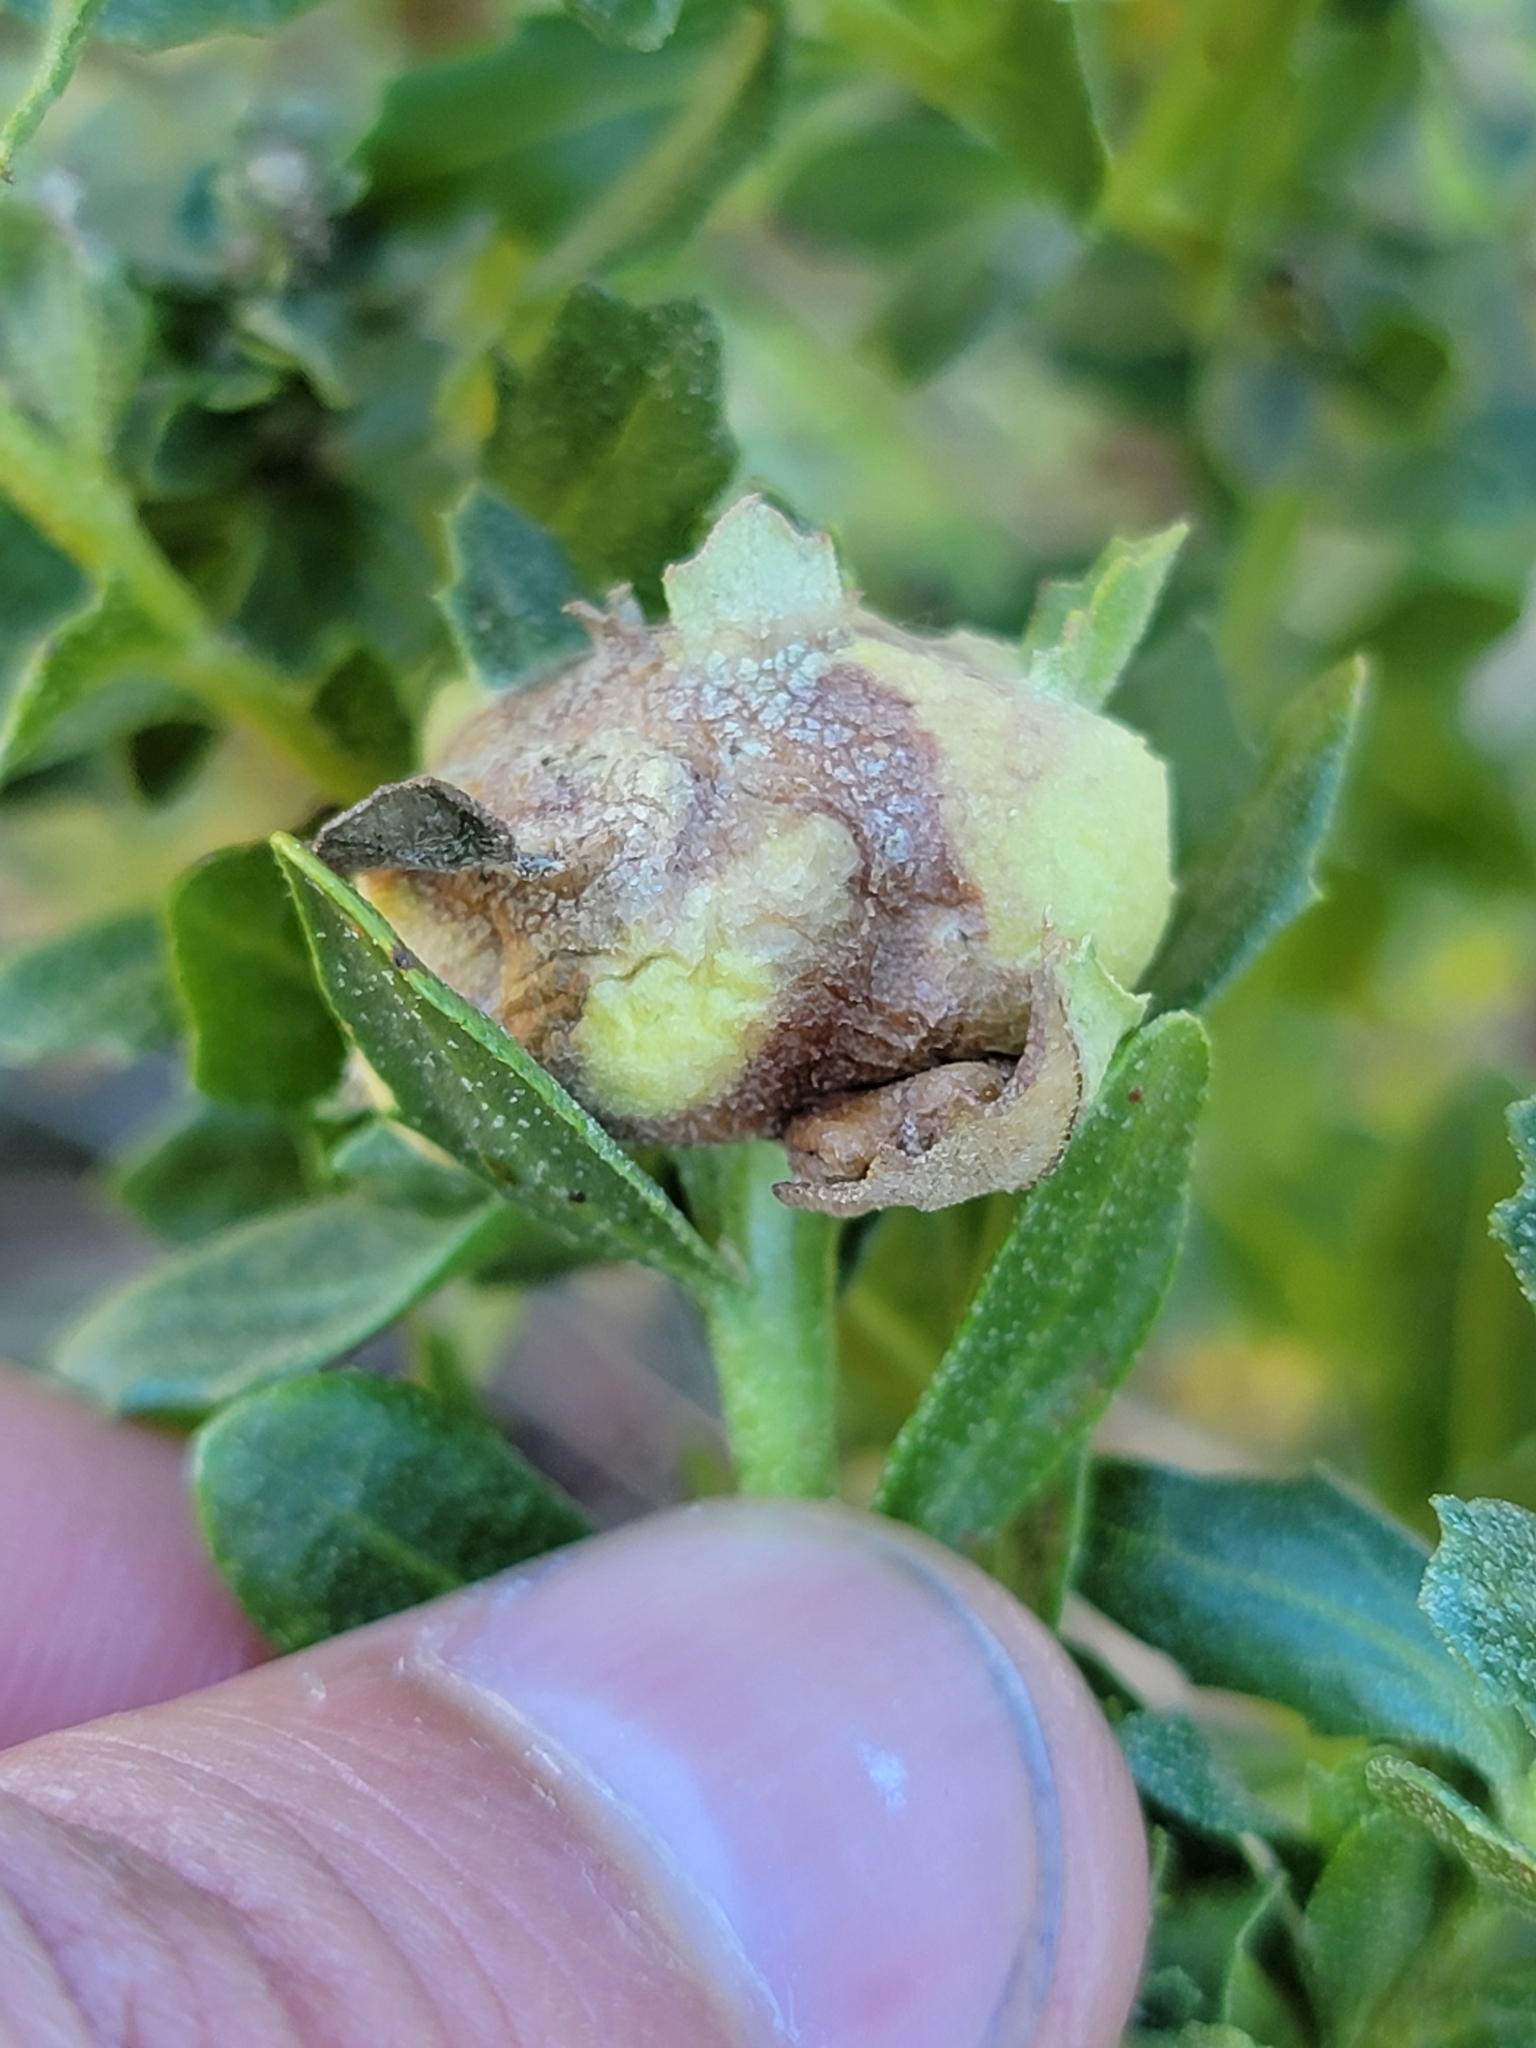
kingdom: Animalia
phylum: Arthropoda
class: Insecta
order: Diptera
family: Cecidomyiidae
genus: Rhopalomyia
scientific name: Rhopalomyia californica
